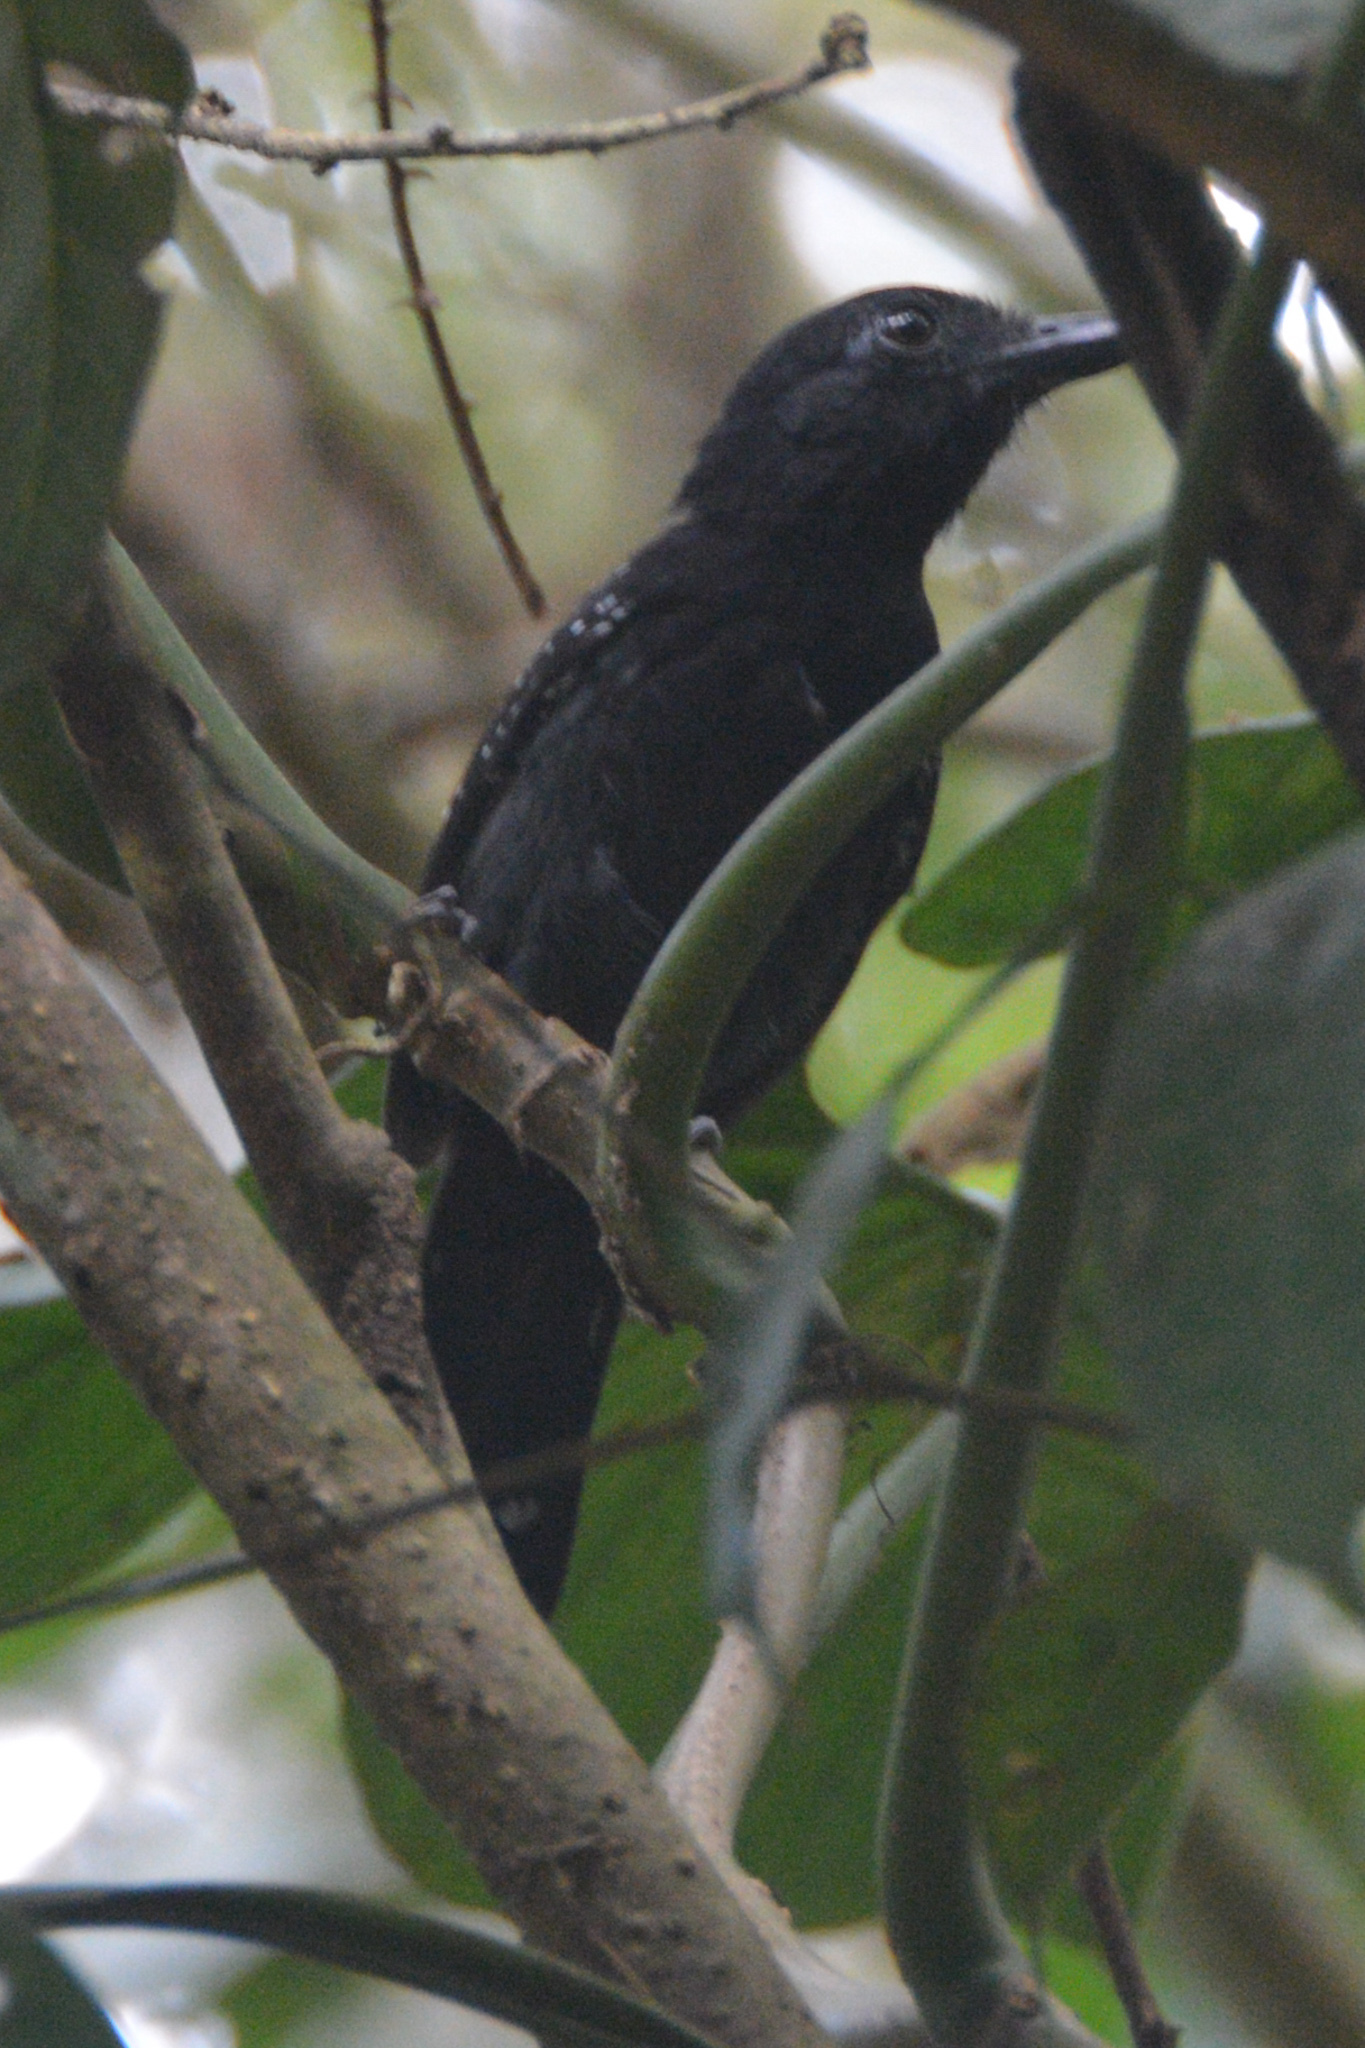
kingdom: Animalia
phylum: Chordata
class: Aves
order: Passeriformes
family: Thamnophilidae
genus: Thamnophilus
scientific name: Thamnophilus bridgesi
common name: Black-hooded antshrike
